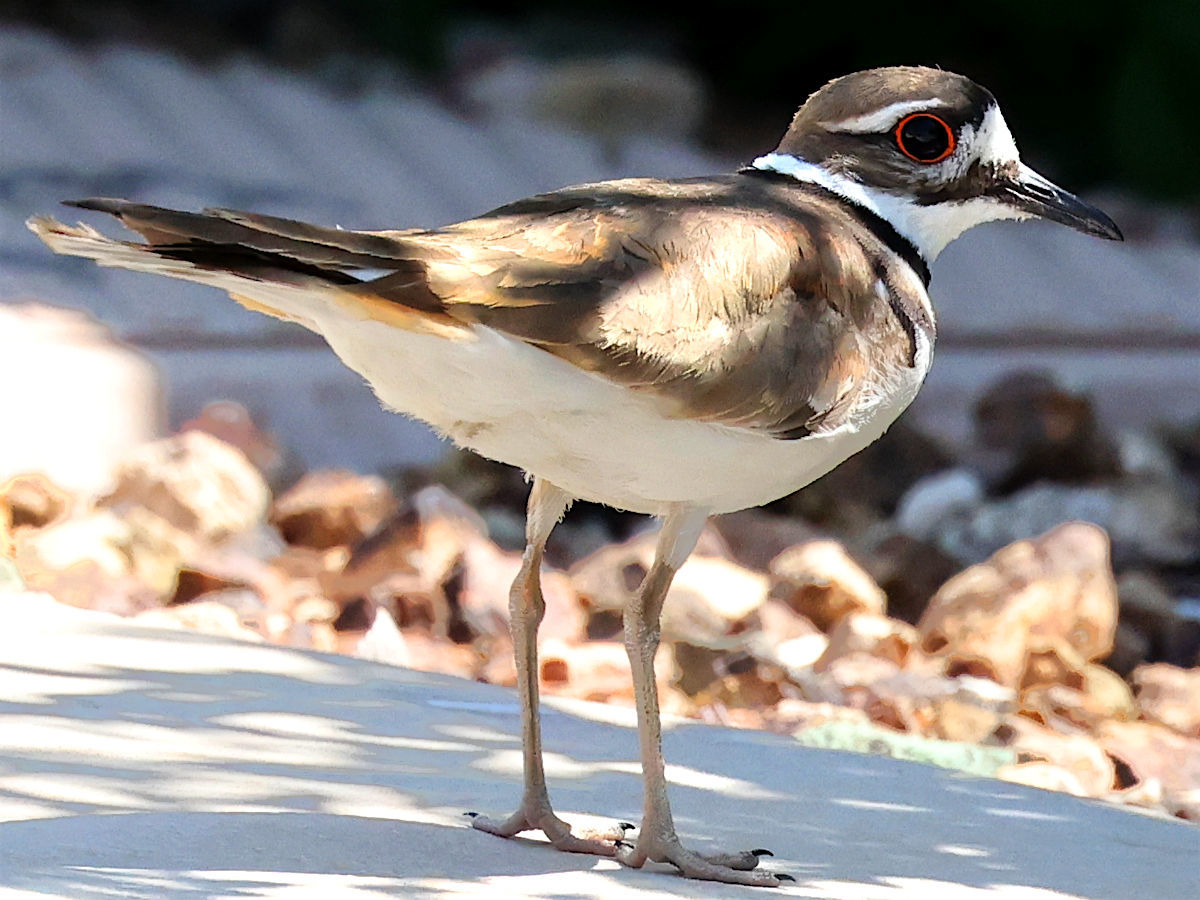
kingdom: Animalia
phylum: Chordata
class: Aves
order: Charadriiformes
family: Charadriidae
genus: Charadrius
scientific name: Charadrius vociferus
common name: Killdeer
